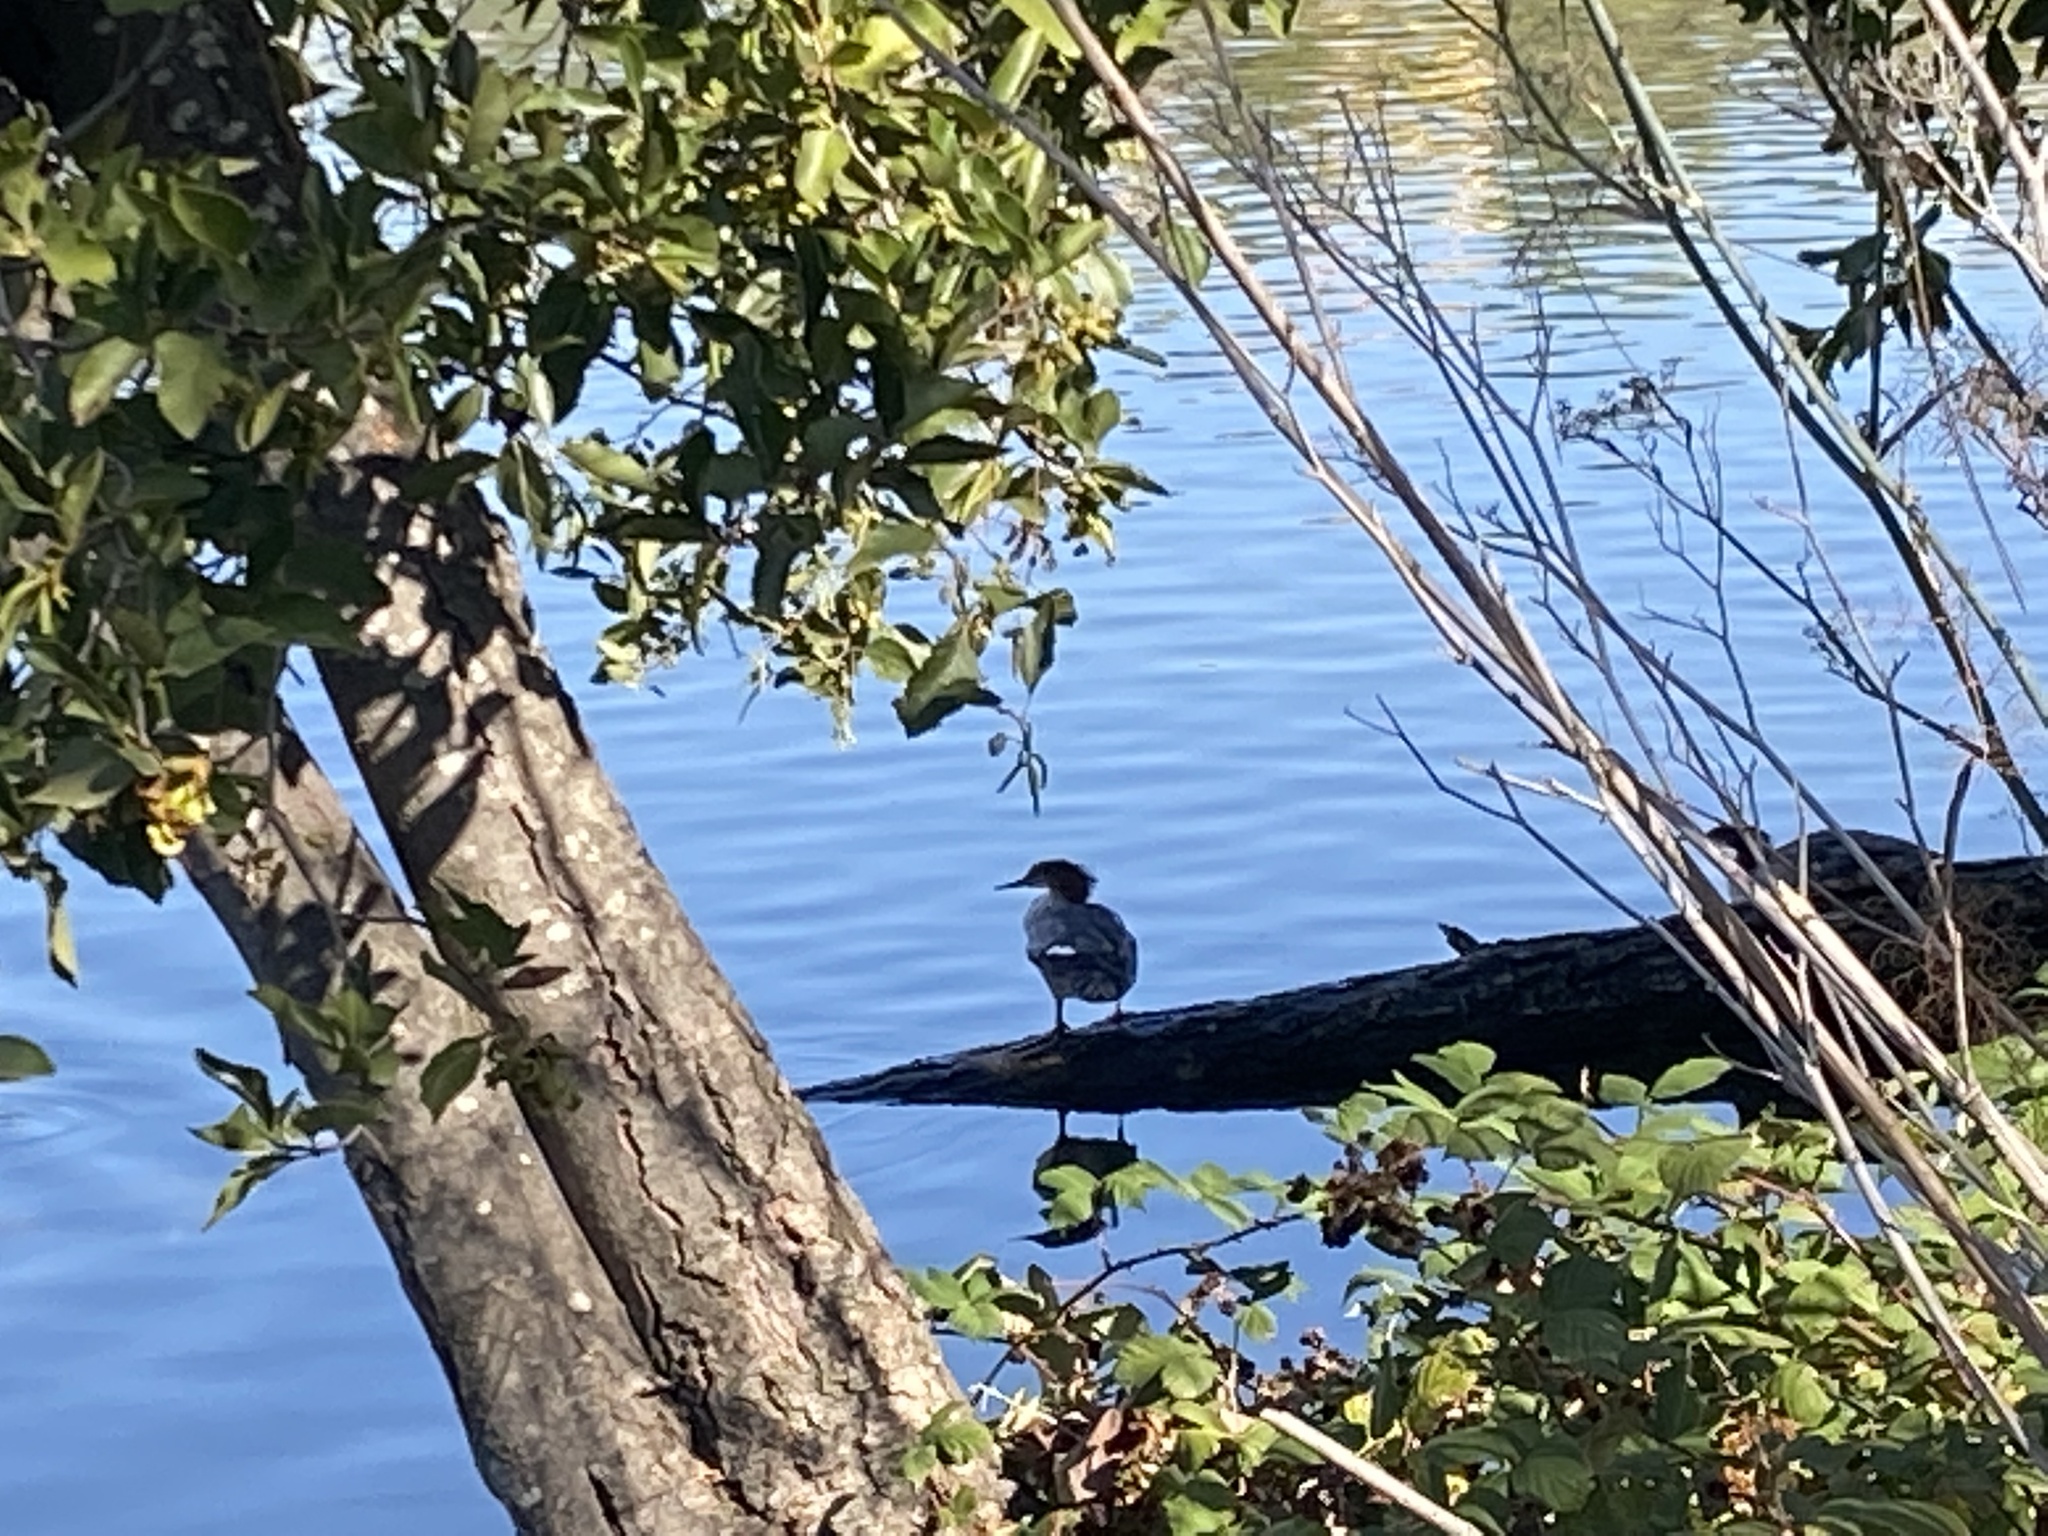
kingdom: Animalia
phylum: Chordata
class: Aves
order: Anseriformes
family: Anatidae
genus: Mergus
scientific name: Mergus merganser
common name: Common merganser
